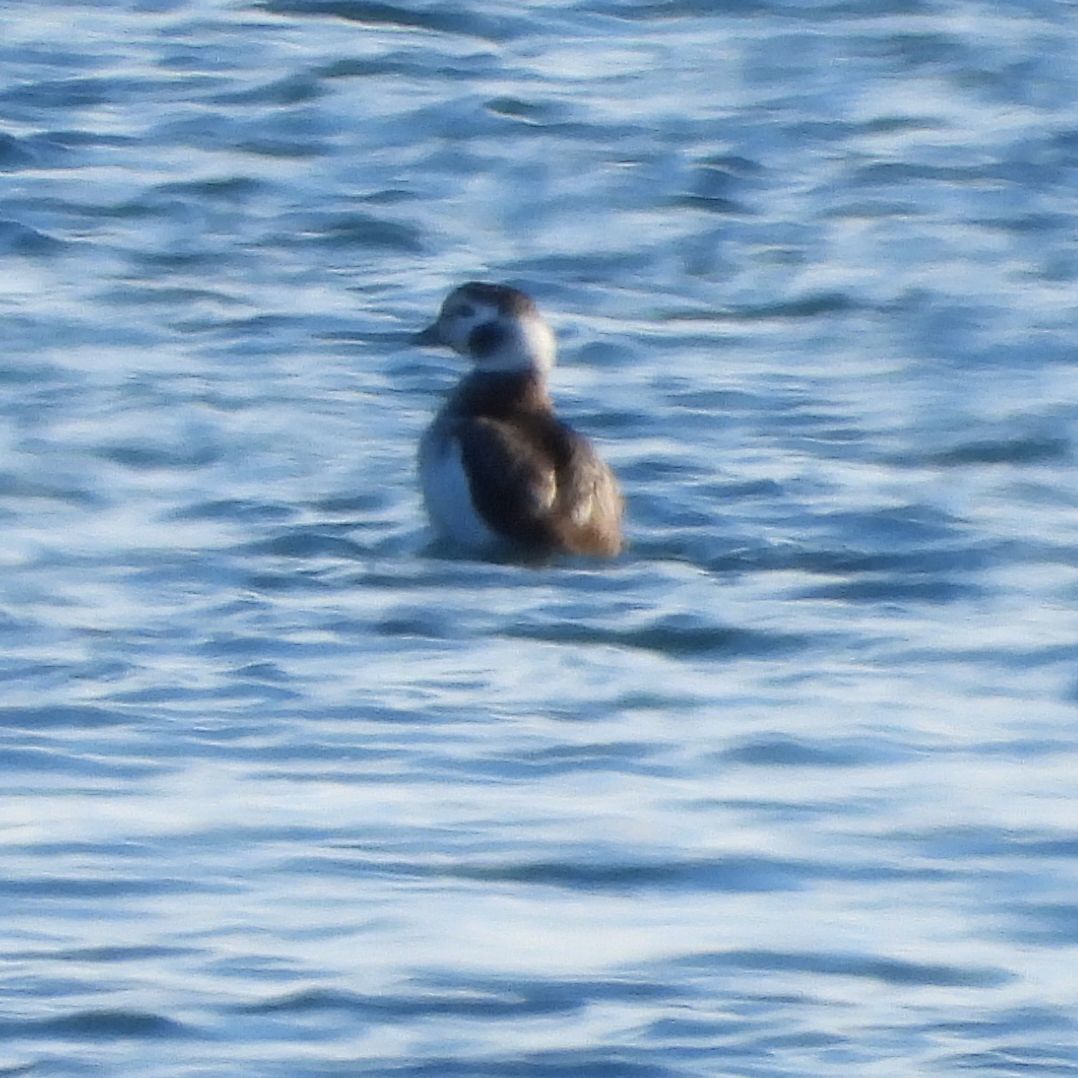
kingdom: Animalia
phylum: Chordata
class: Aves
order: Anseriformes
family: Anatidae
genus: Clangula
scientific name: Clangula hyemalis
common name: Long-tailed duck
